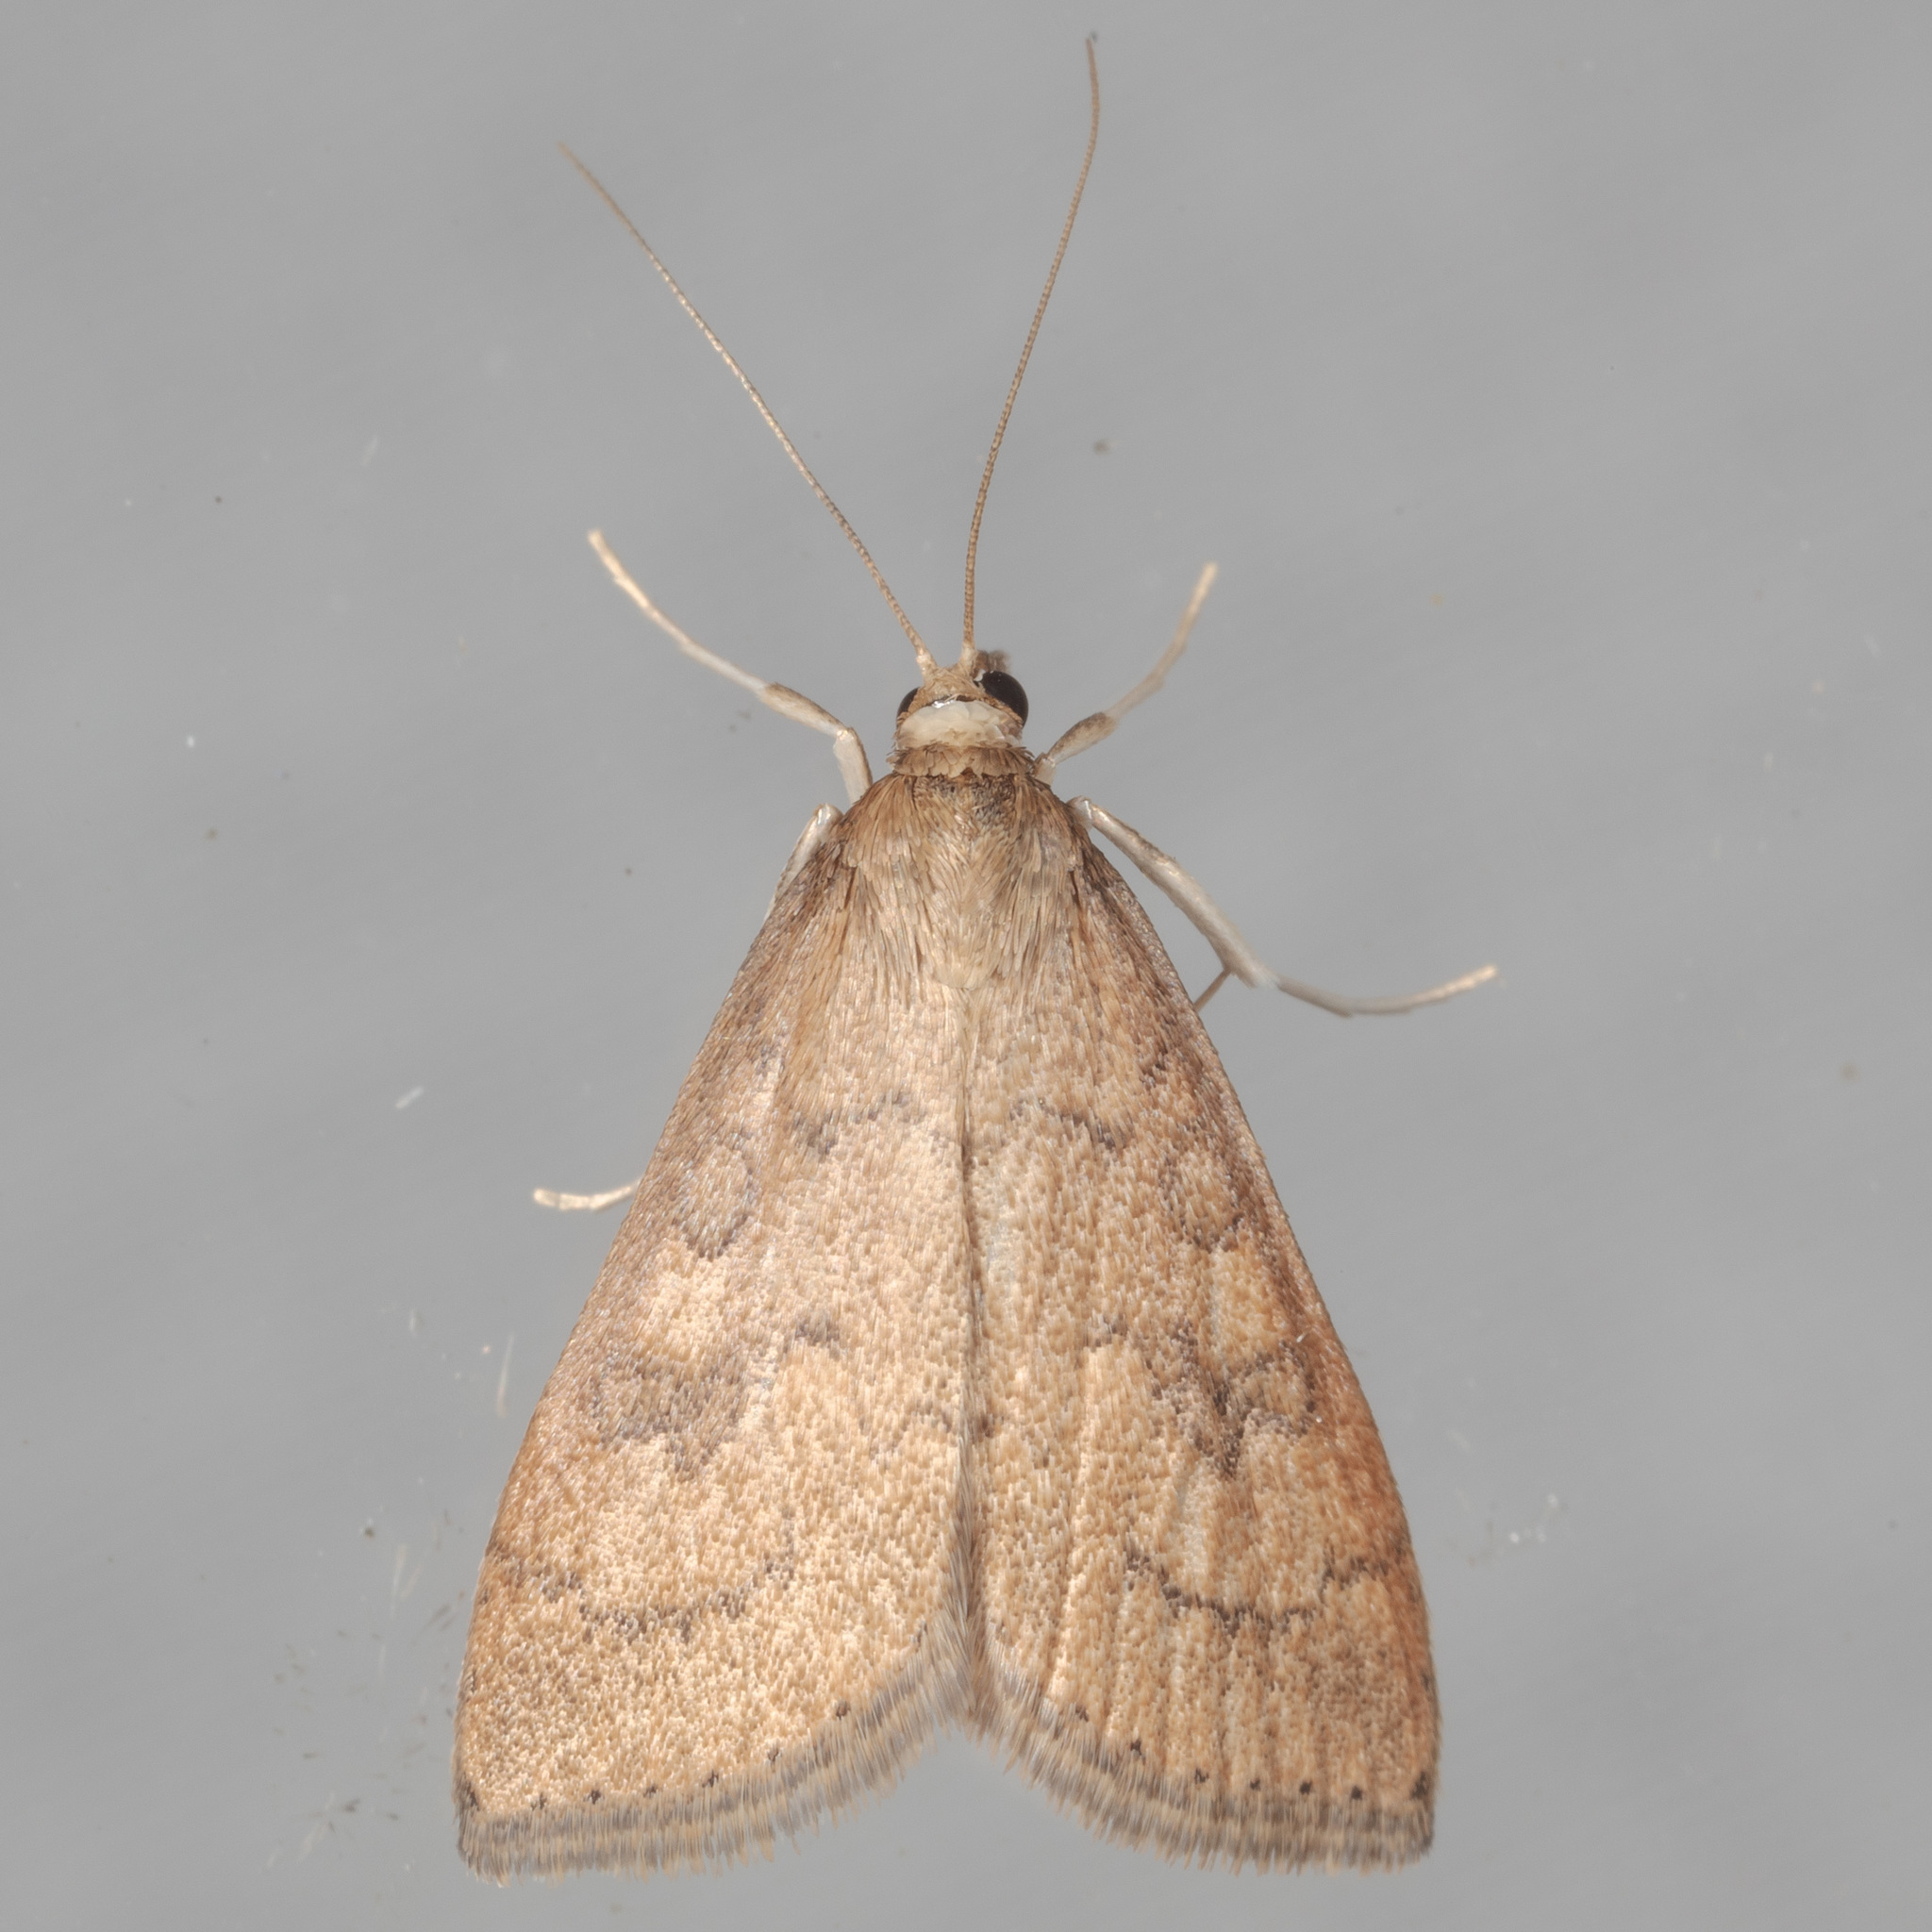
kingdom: Animalia
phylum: Arthropoda
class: Insecta
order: Lepidoptera
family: Crambidae
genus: Udea
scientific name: Udea rubigalis
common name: Celery leaftier moth
